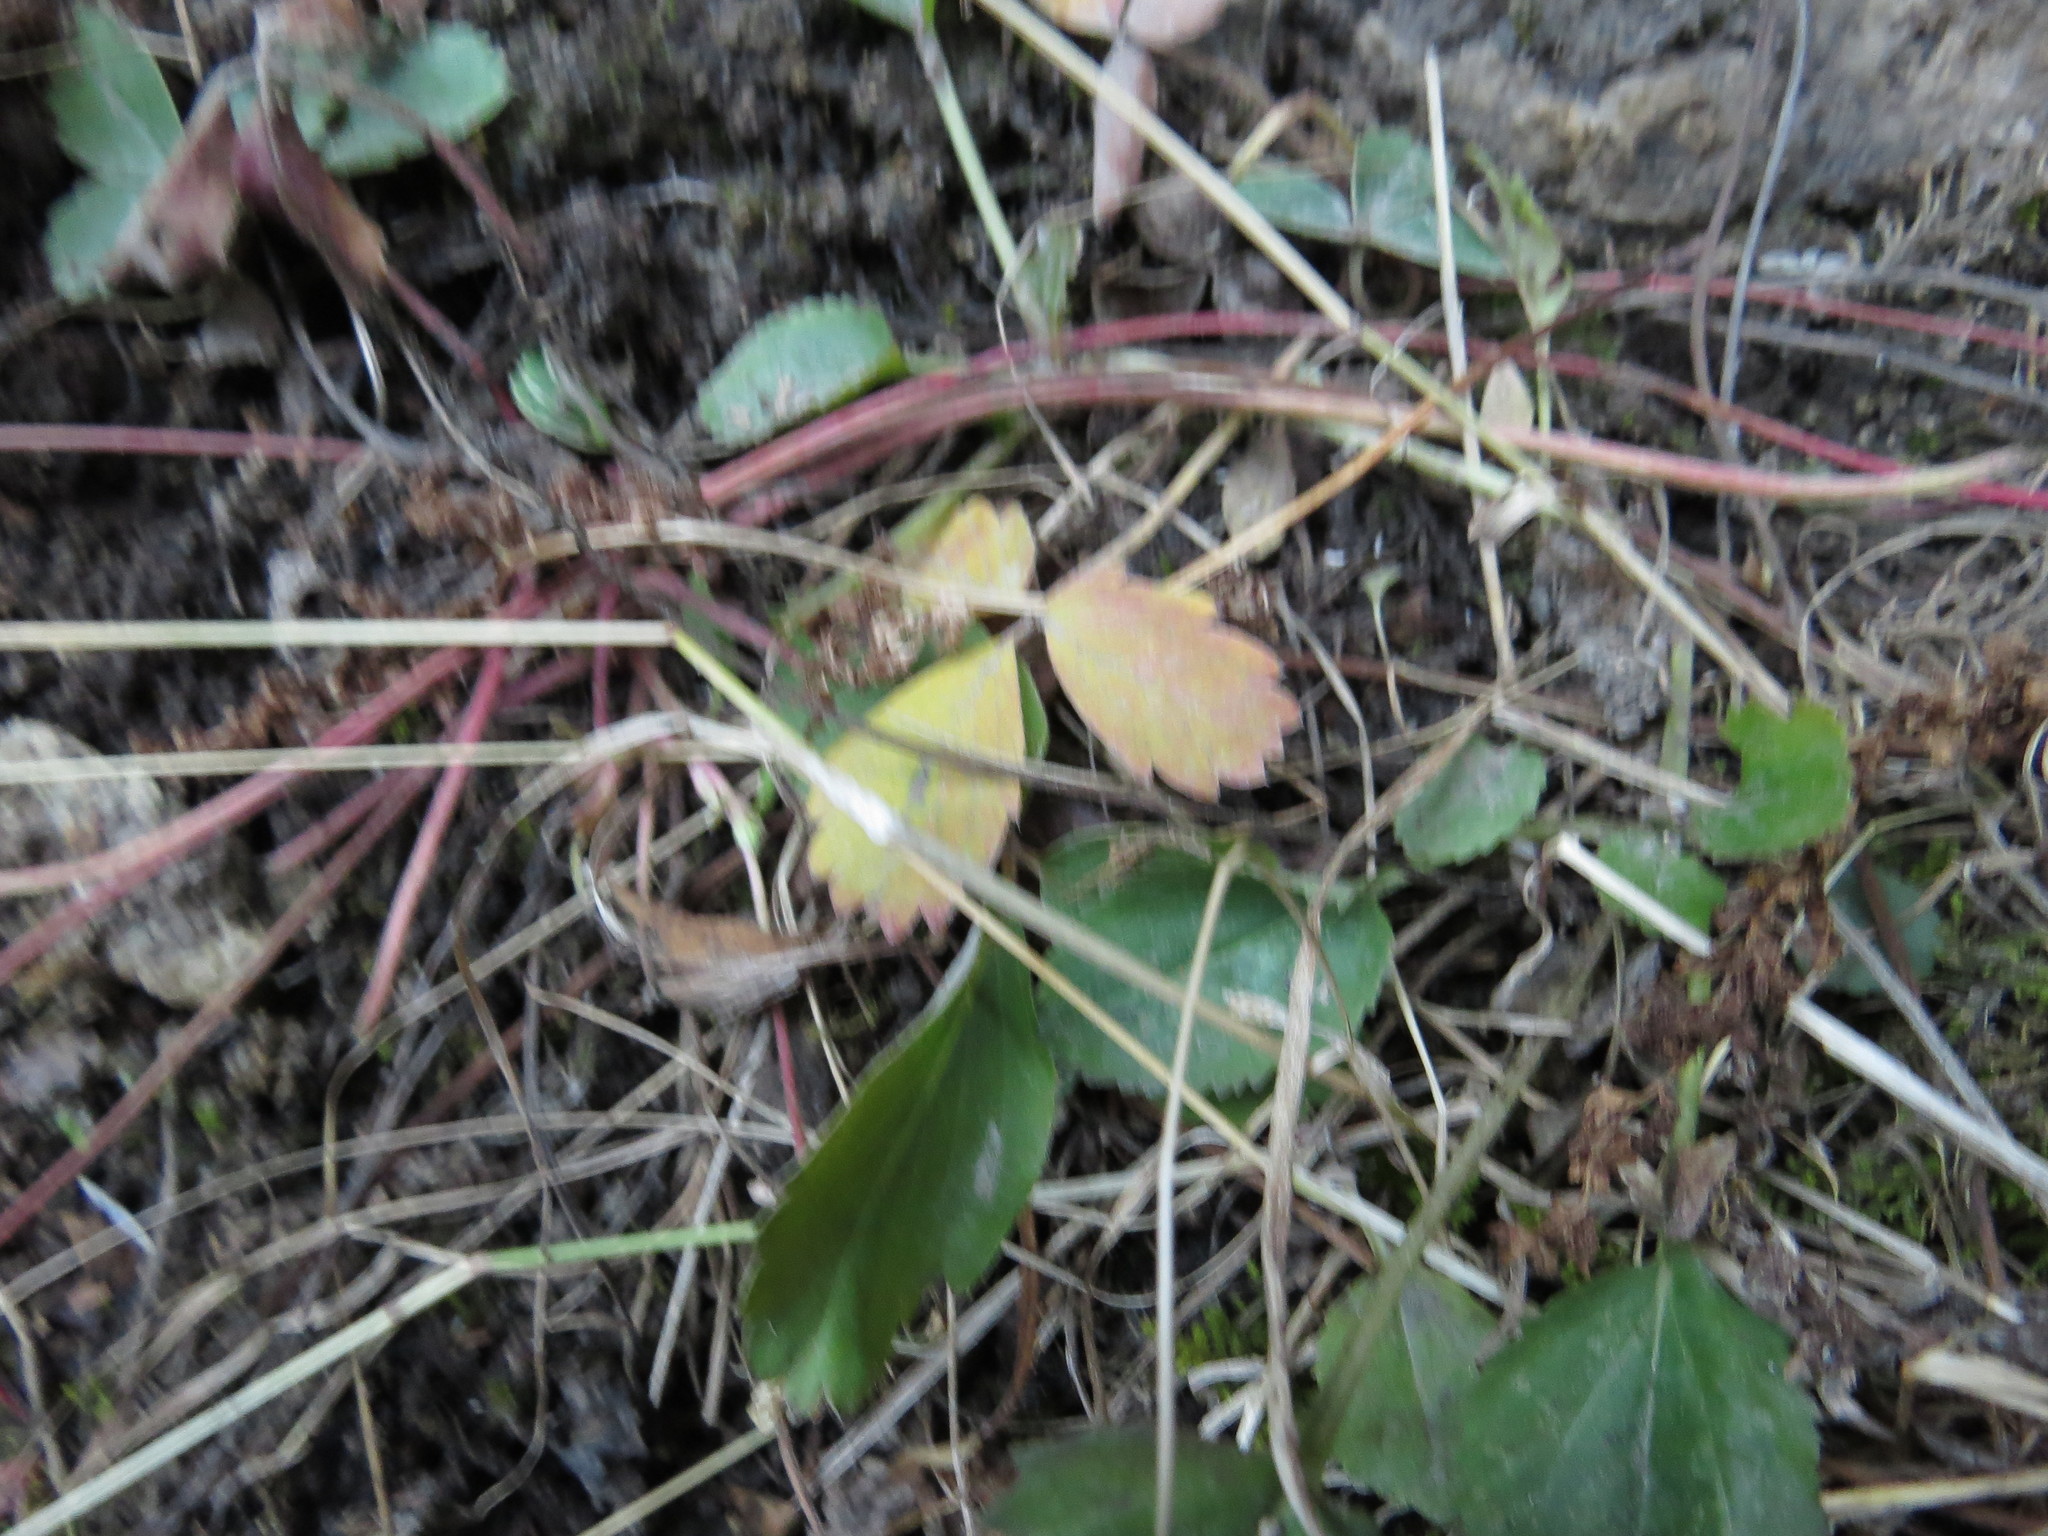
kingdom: Plantae
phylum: Tracheophyta
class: Magnoliopsida
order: Rosales
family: Rosaceae
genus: Fragaria
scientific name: Fragaria virginiana
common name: Thickleaved wild strawberry
